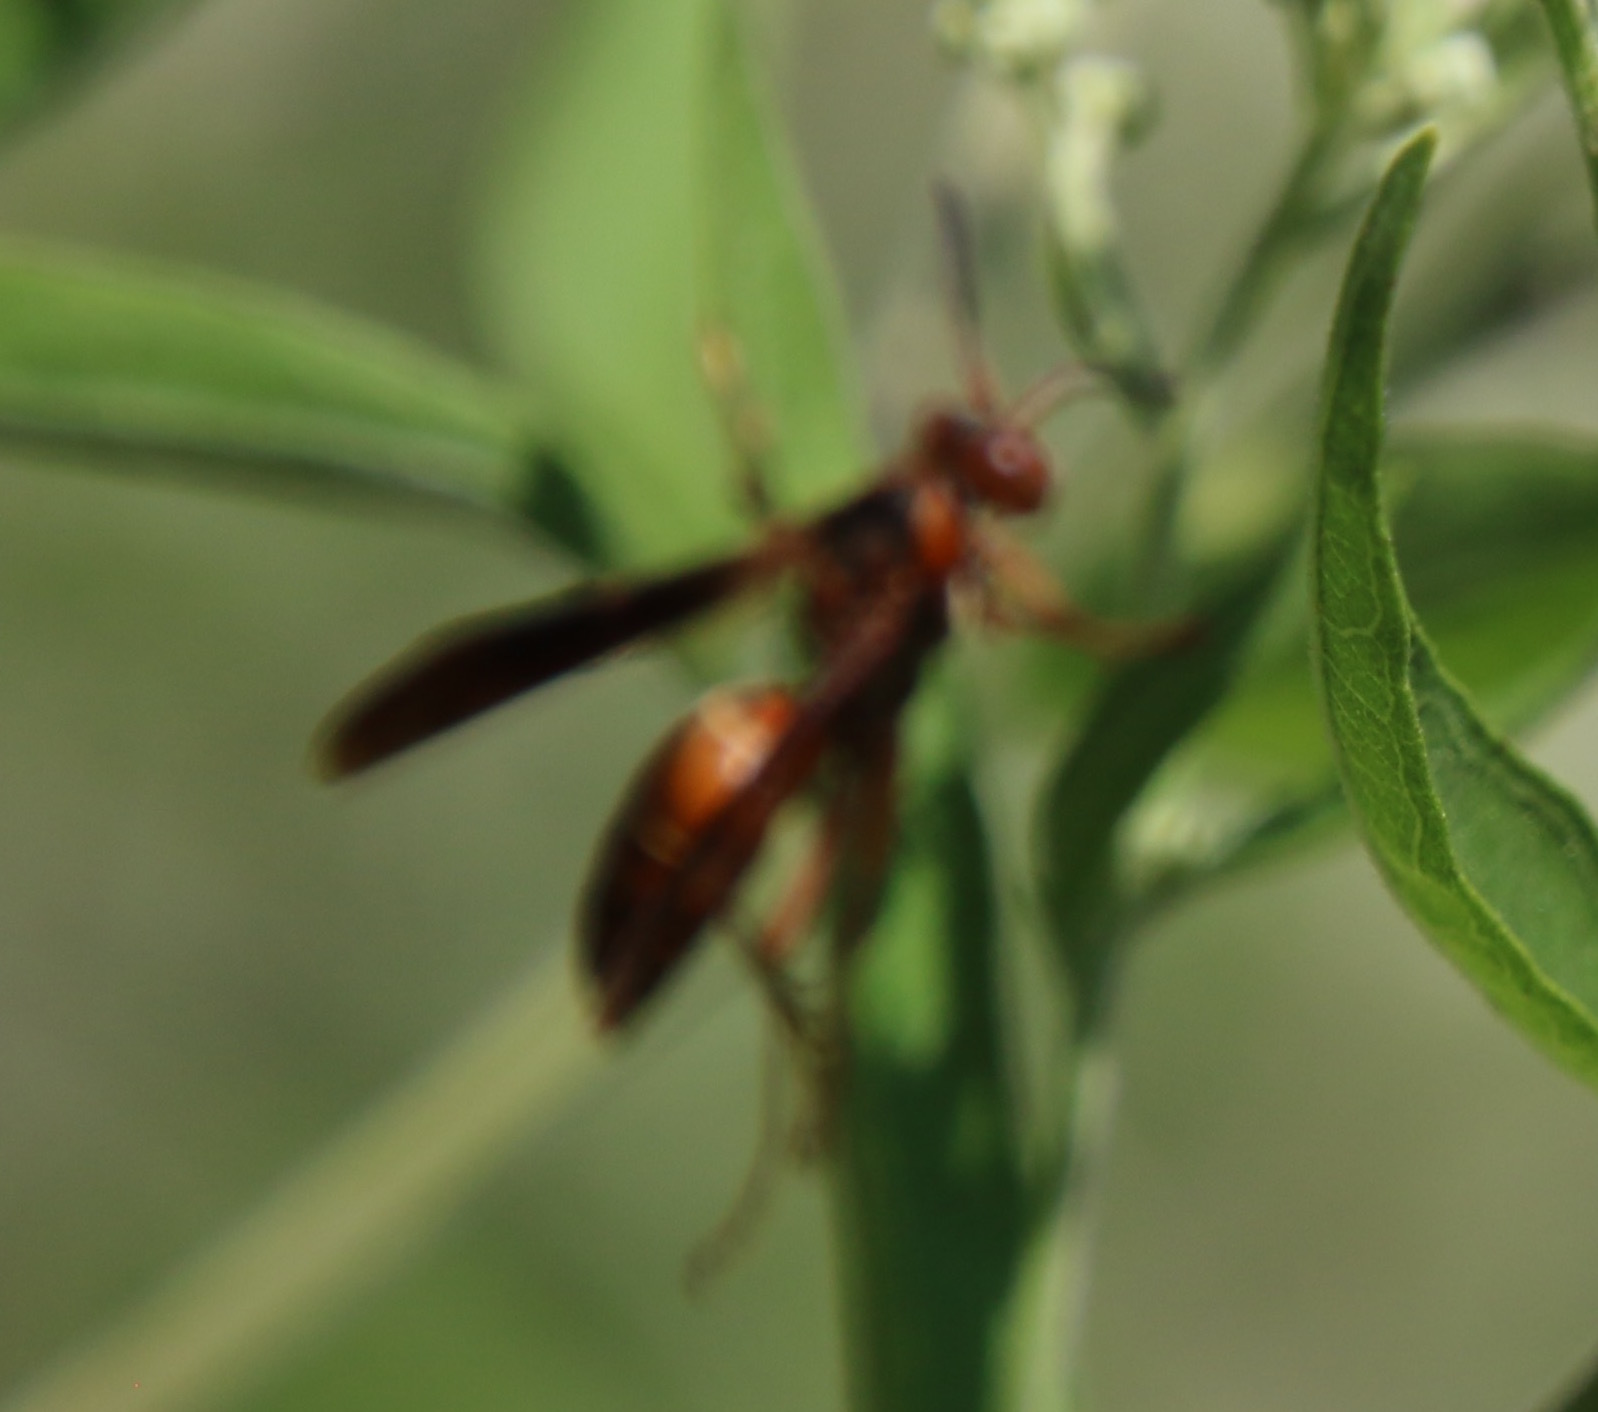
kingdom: Animalia
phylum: Arthropoda
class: Insecta
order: Hymenoptera
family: Vespidae
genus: Fuscopolistes
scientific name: Fuscopolistes
